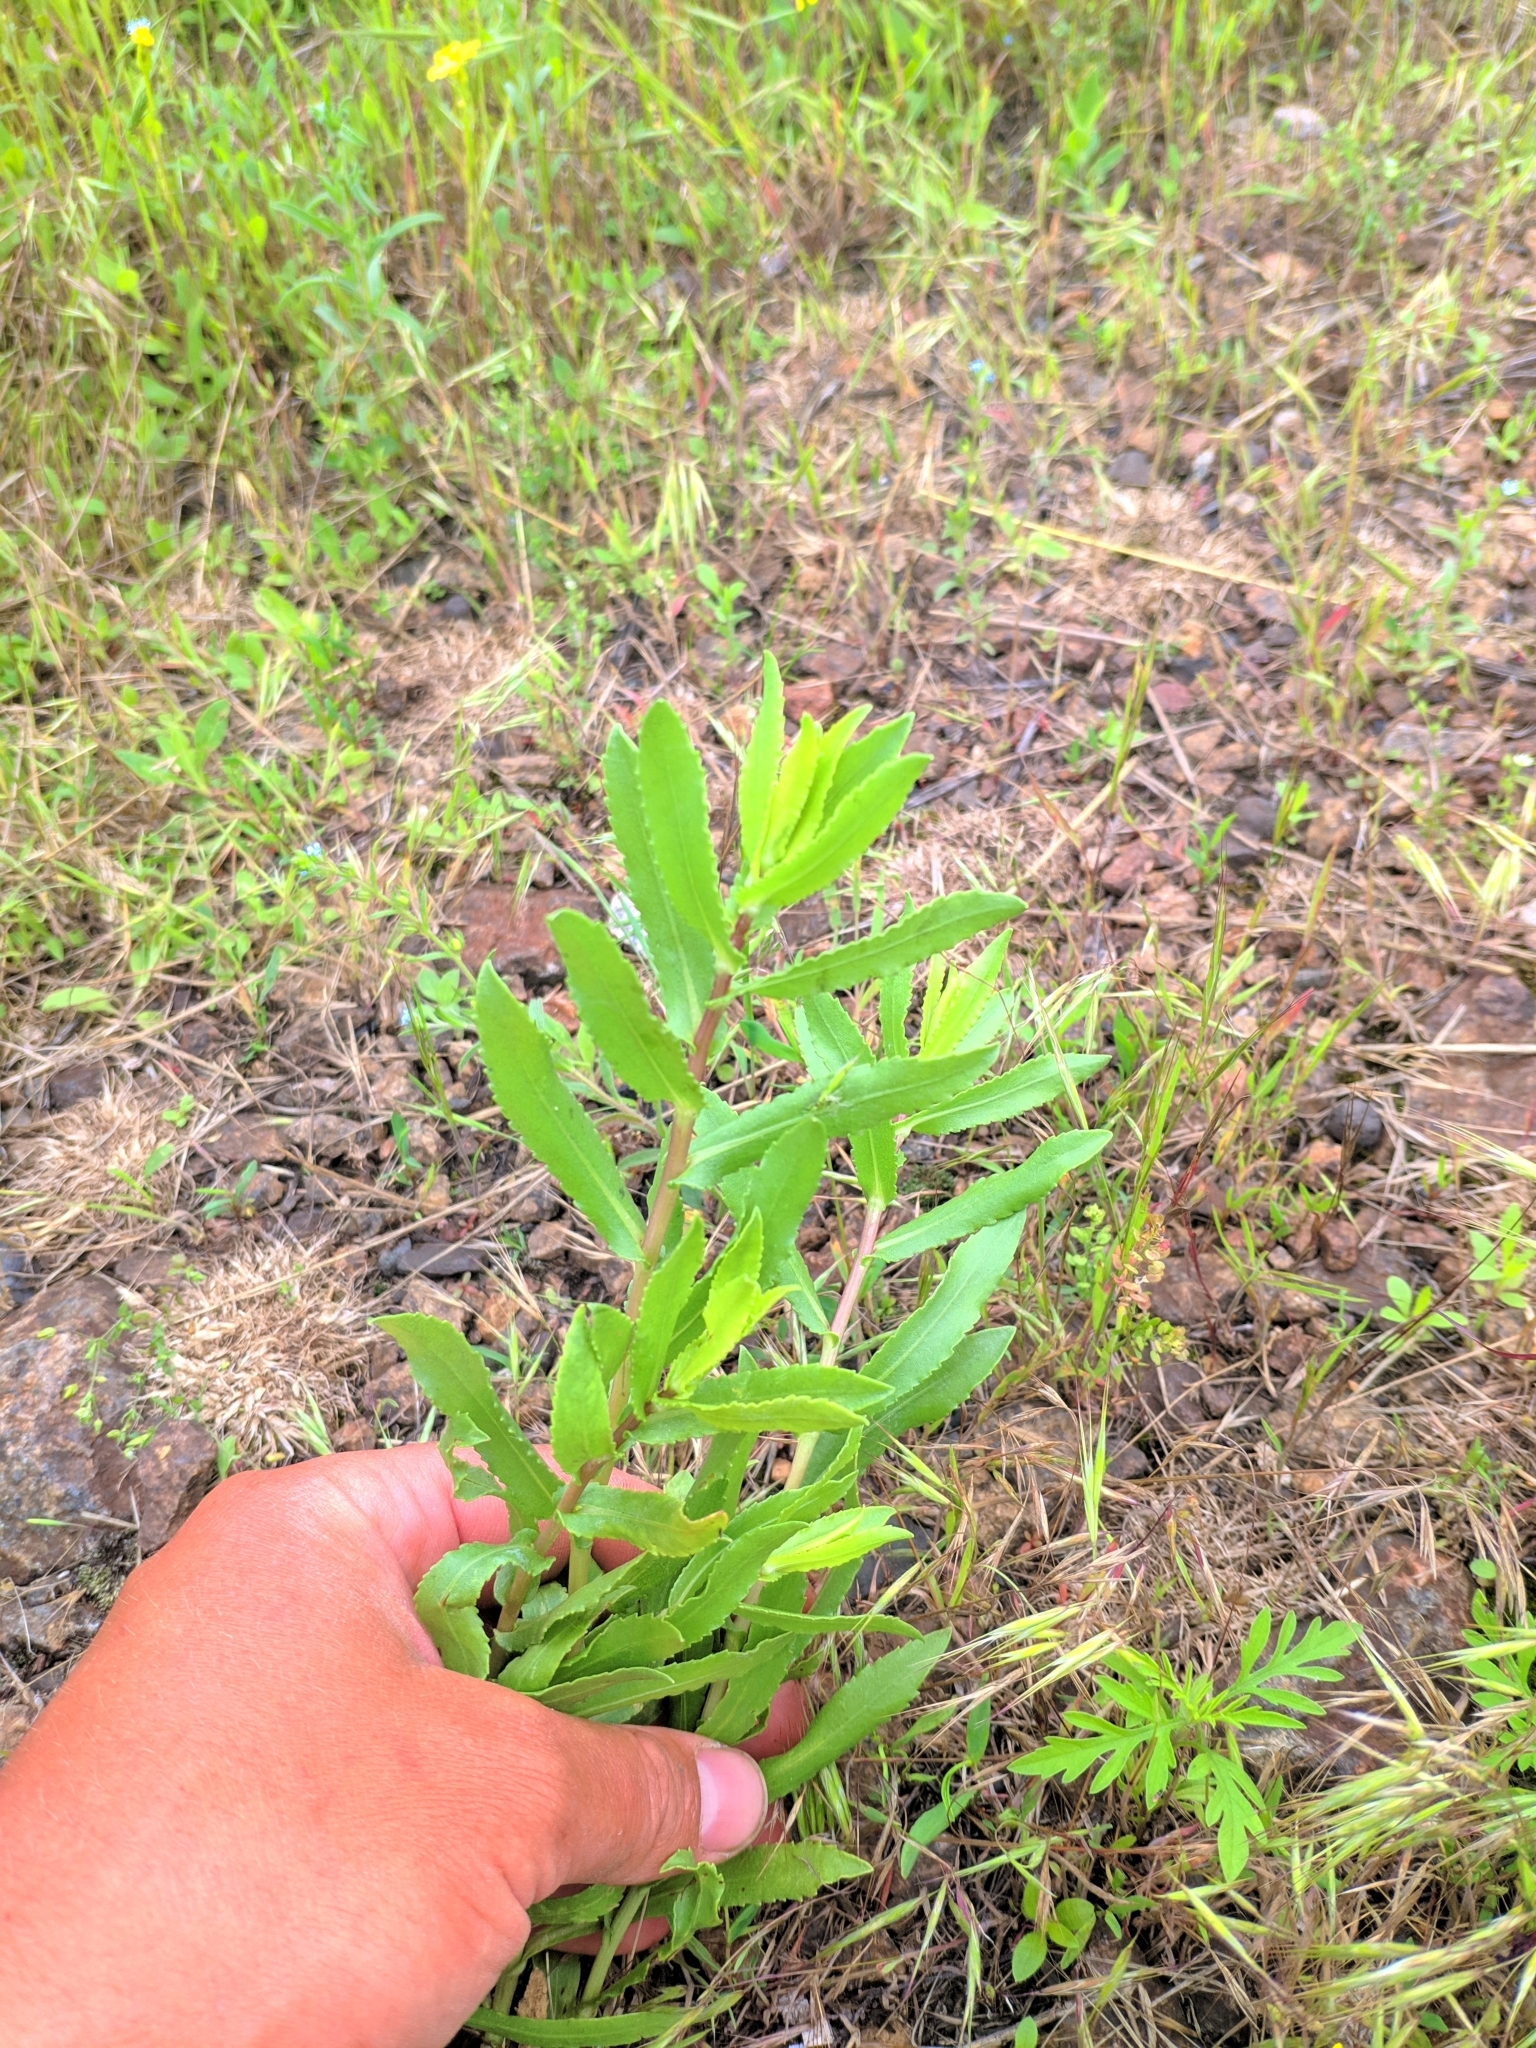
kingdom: Plantae
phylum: Tracheophyta
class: Magnoliopsida
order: Asterales
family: Asteraceae
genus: Grindelia
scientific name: Grindelia squarrosa
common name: Curly-cup gumweed
